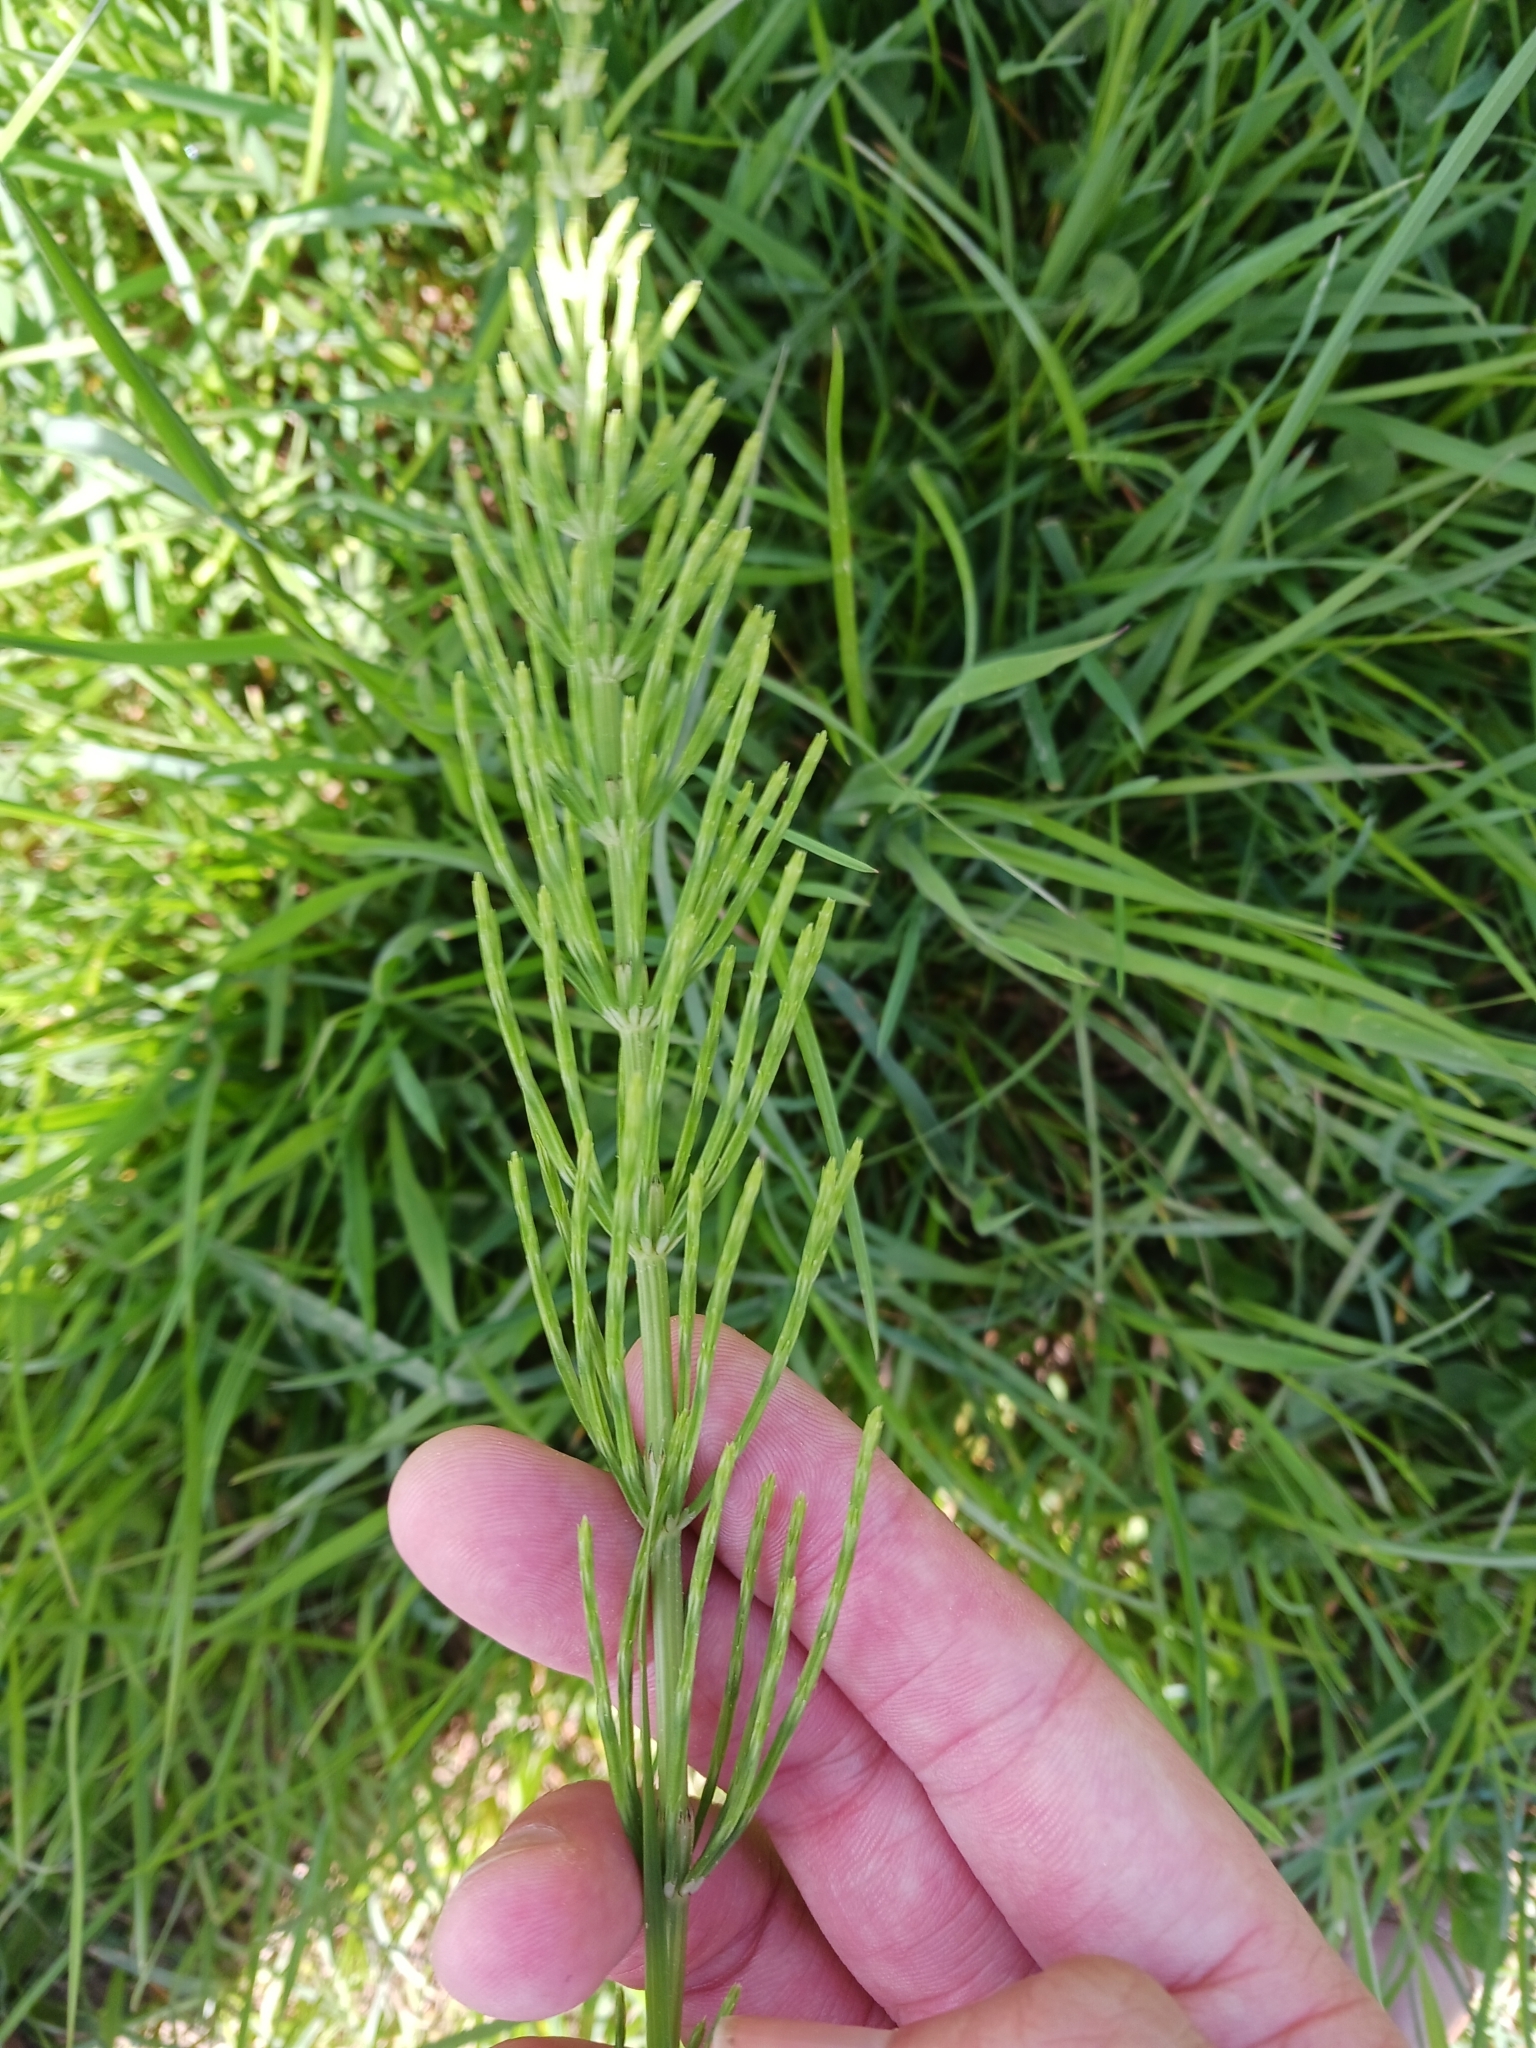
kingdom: Plantae
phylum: Tracheophyta
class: Polypodiopsida
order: Equisetales
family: Equisetaceae
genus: Equisetum
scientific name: Equisetum arvense
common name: Field horsetail
